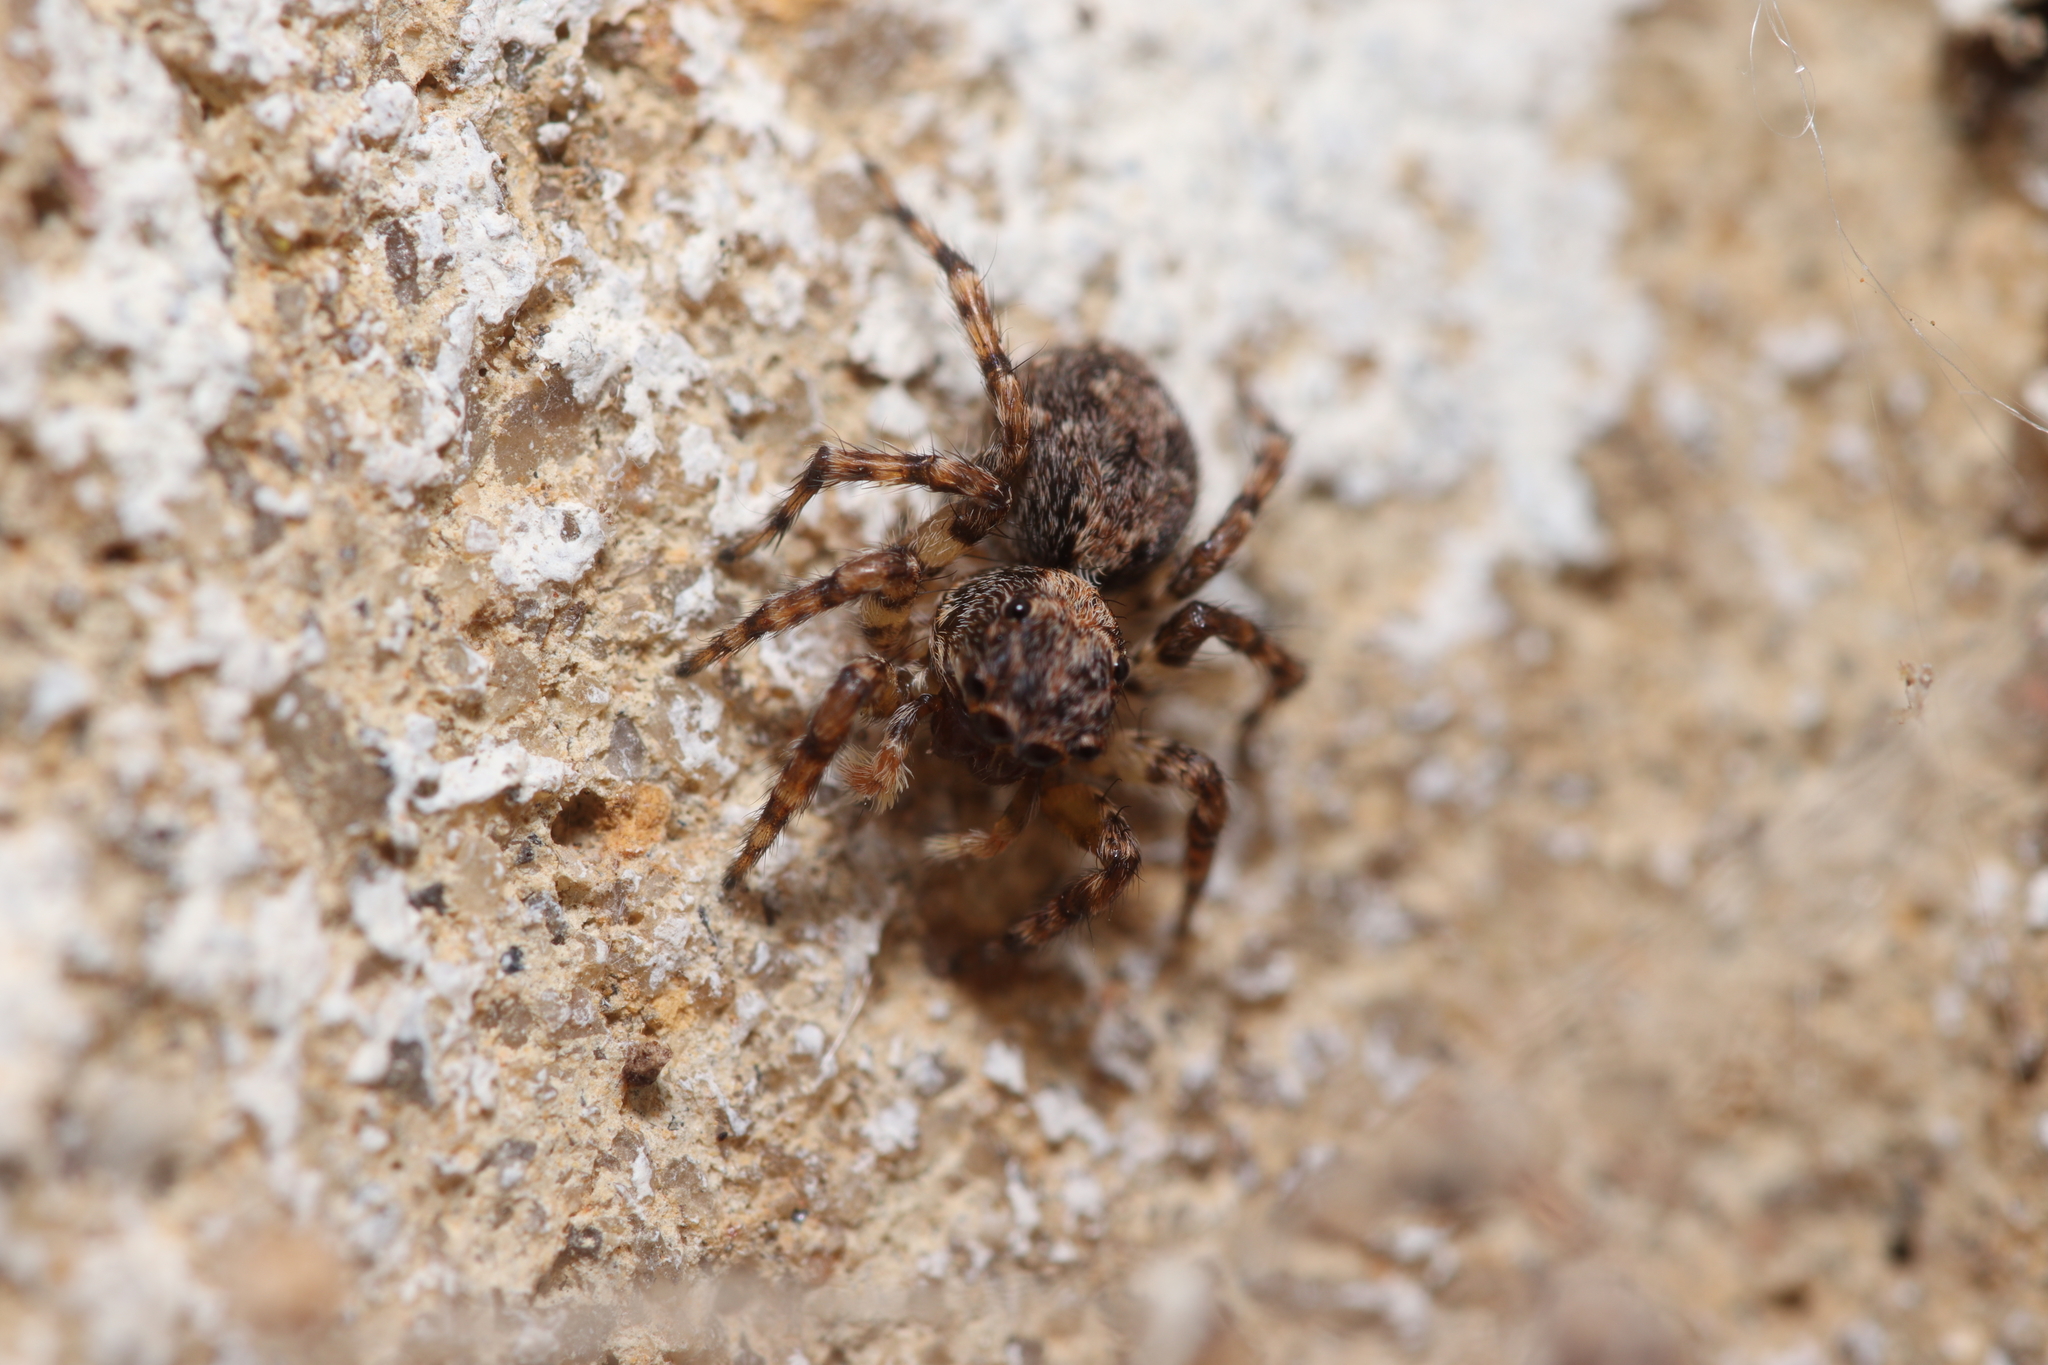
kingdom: Animalia
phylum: Arthropoda
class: Arachnida
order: Araneae
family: Salticidae
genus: Marma
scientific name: Marma nigritarsis
